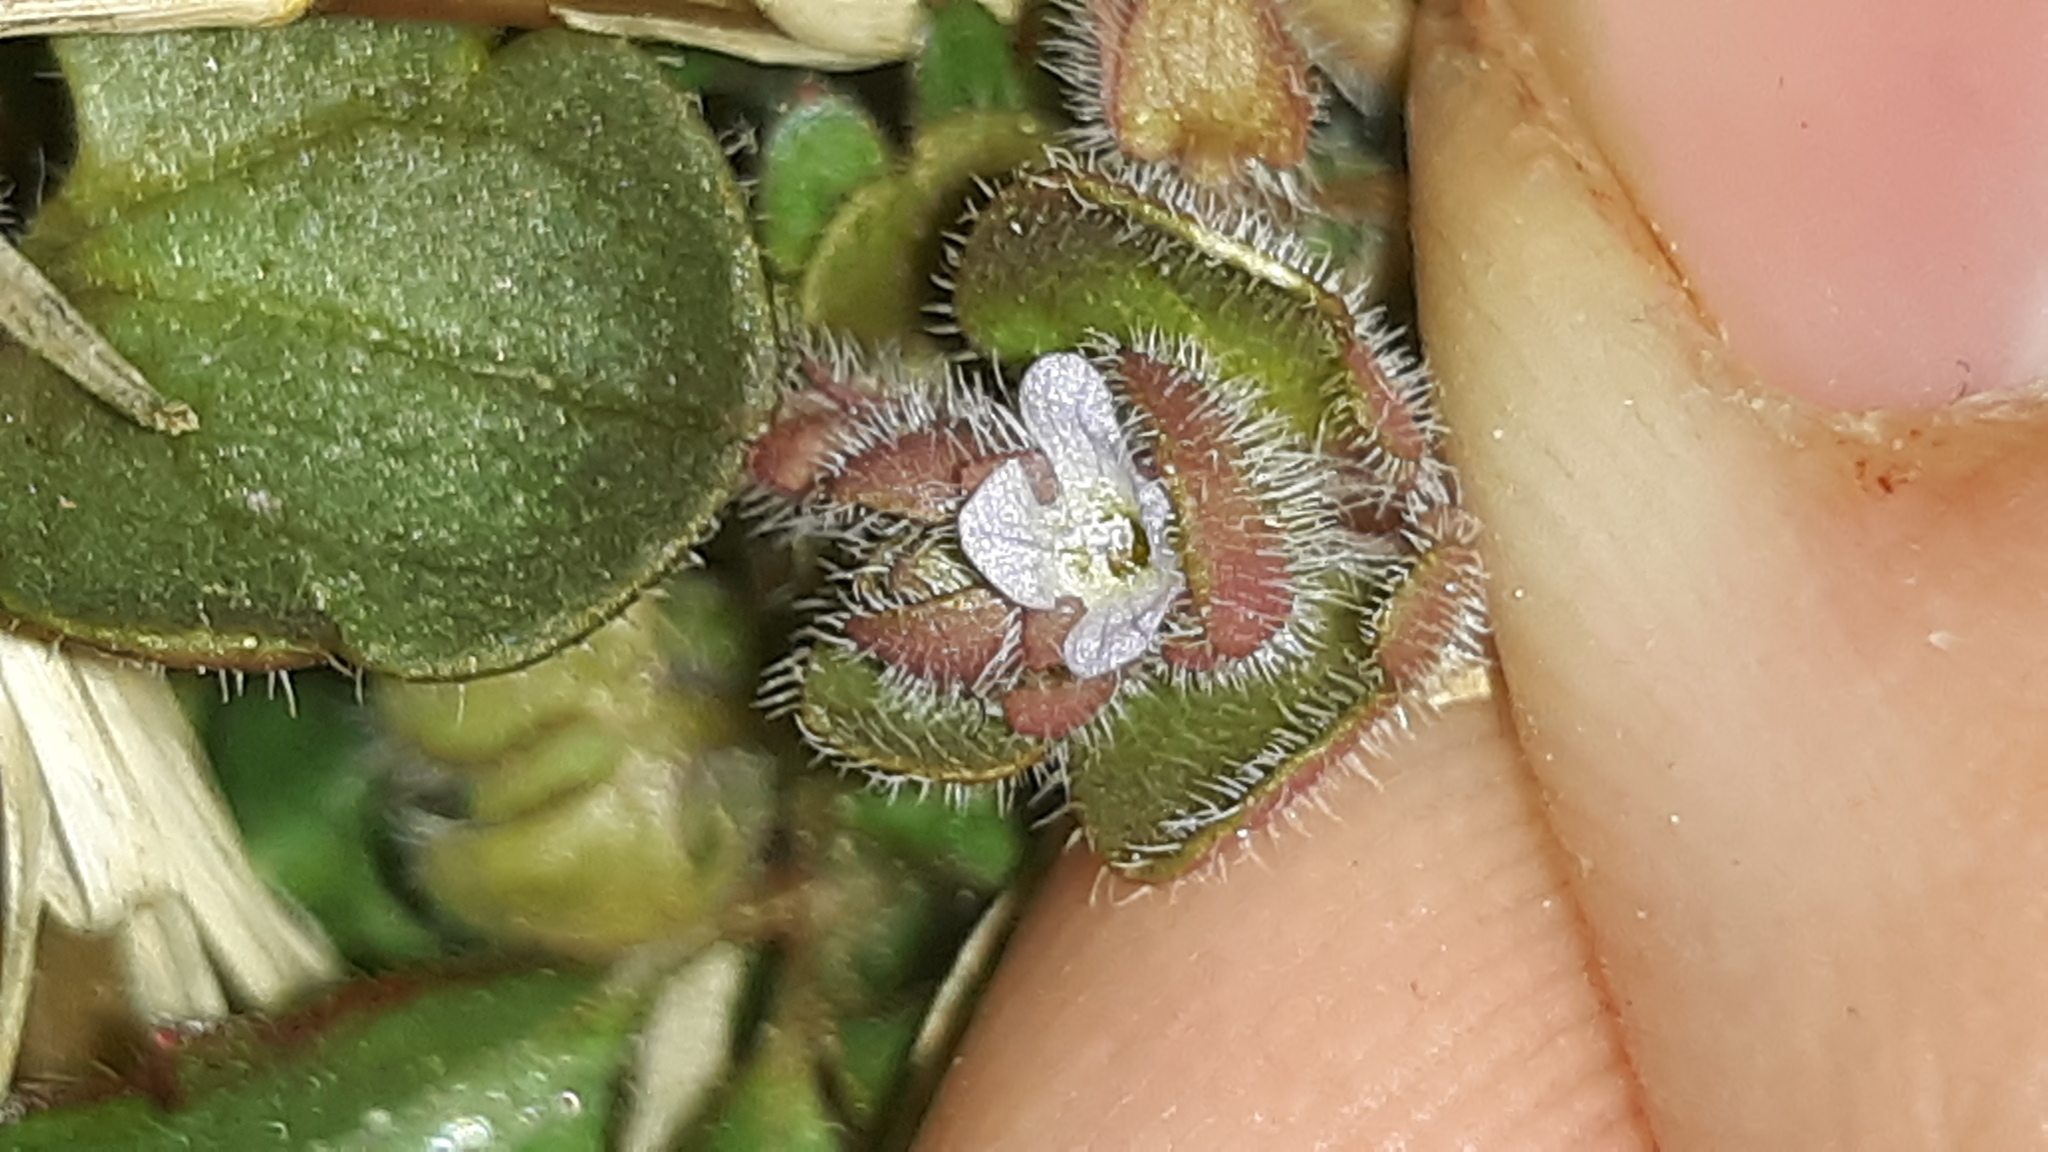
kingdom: Plantae
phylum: Tracheophyta
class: Magnoliopsida
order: Lamiales
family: Plantaginaceae
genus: Veronica
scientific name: Veronica hederifolia
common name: Ivy-leaved speedwell
